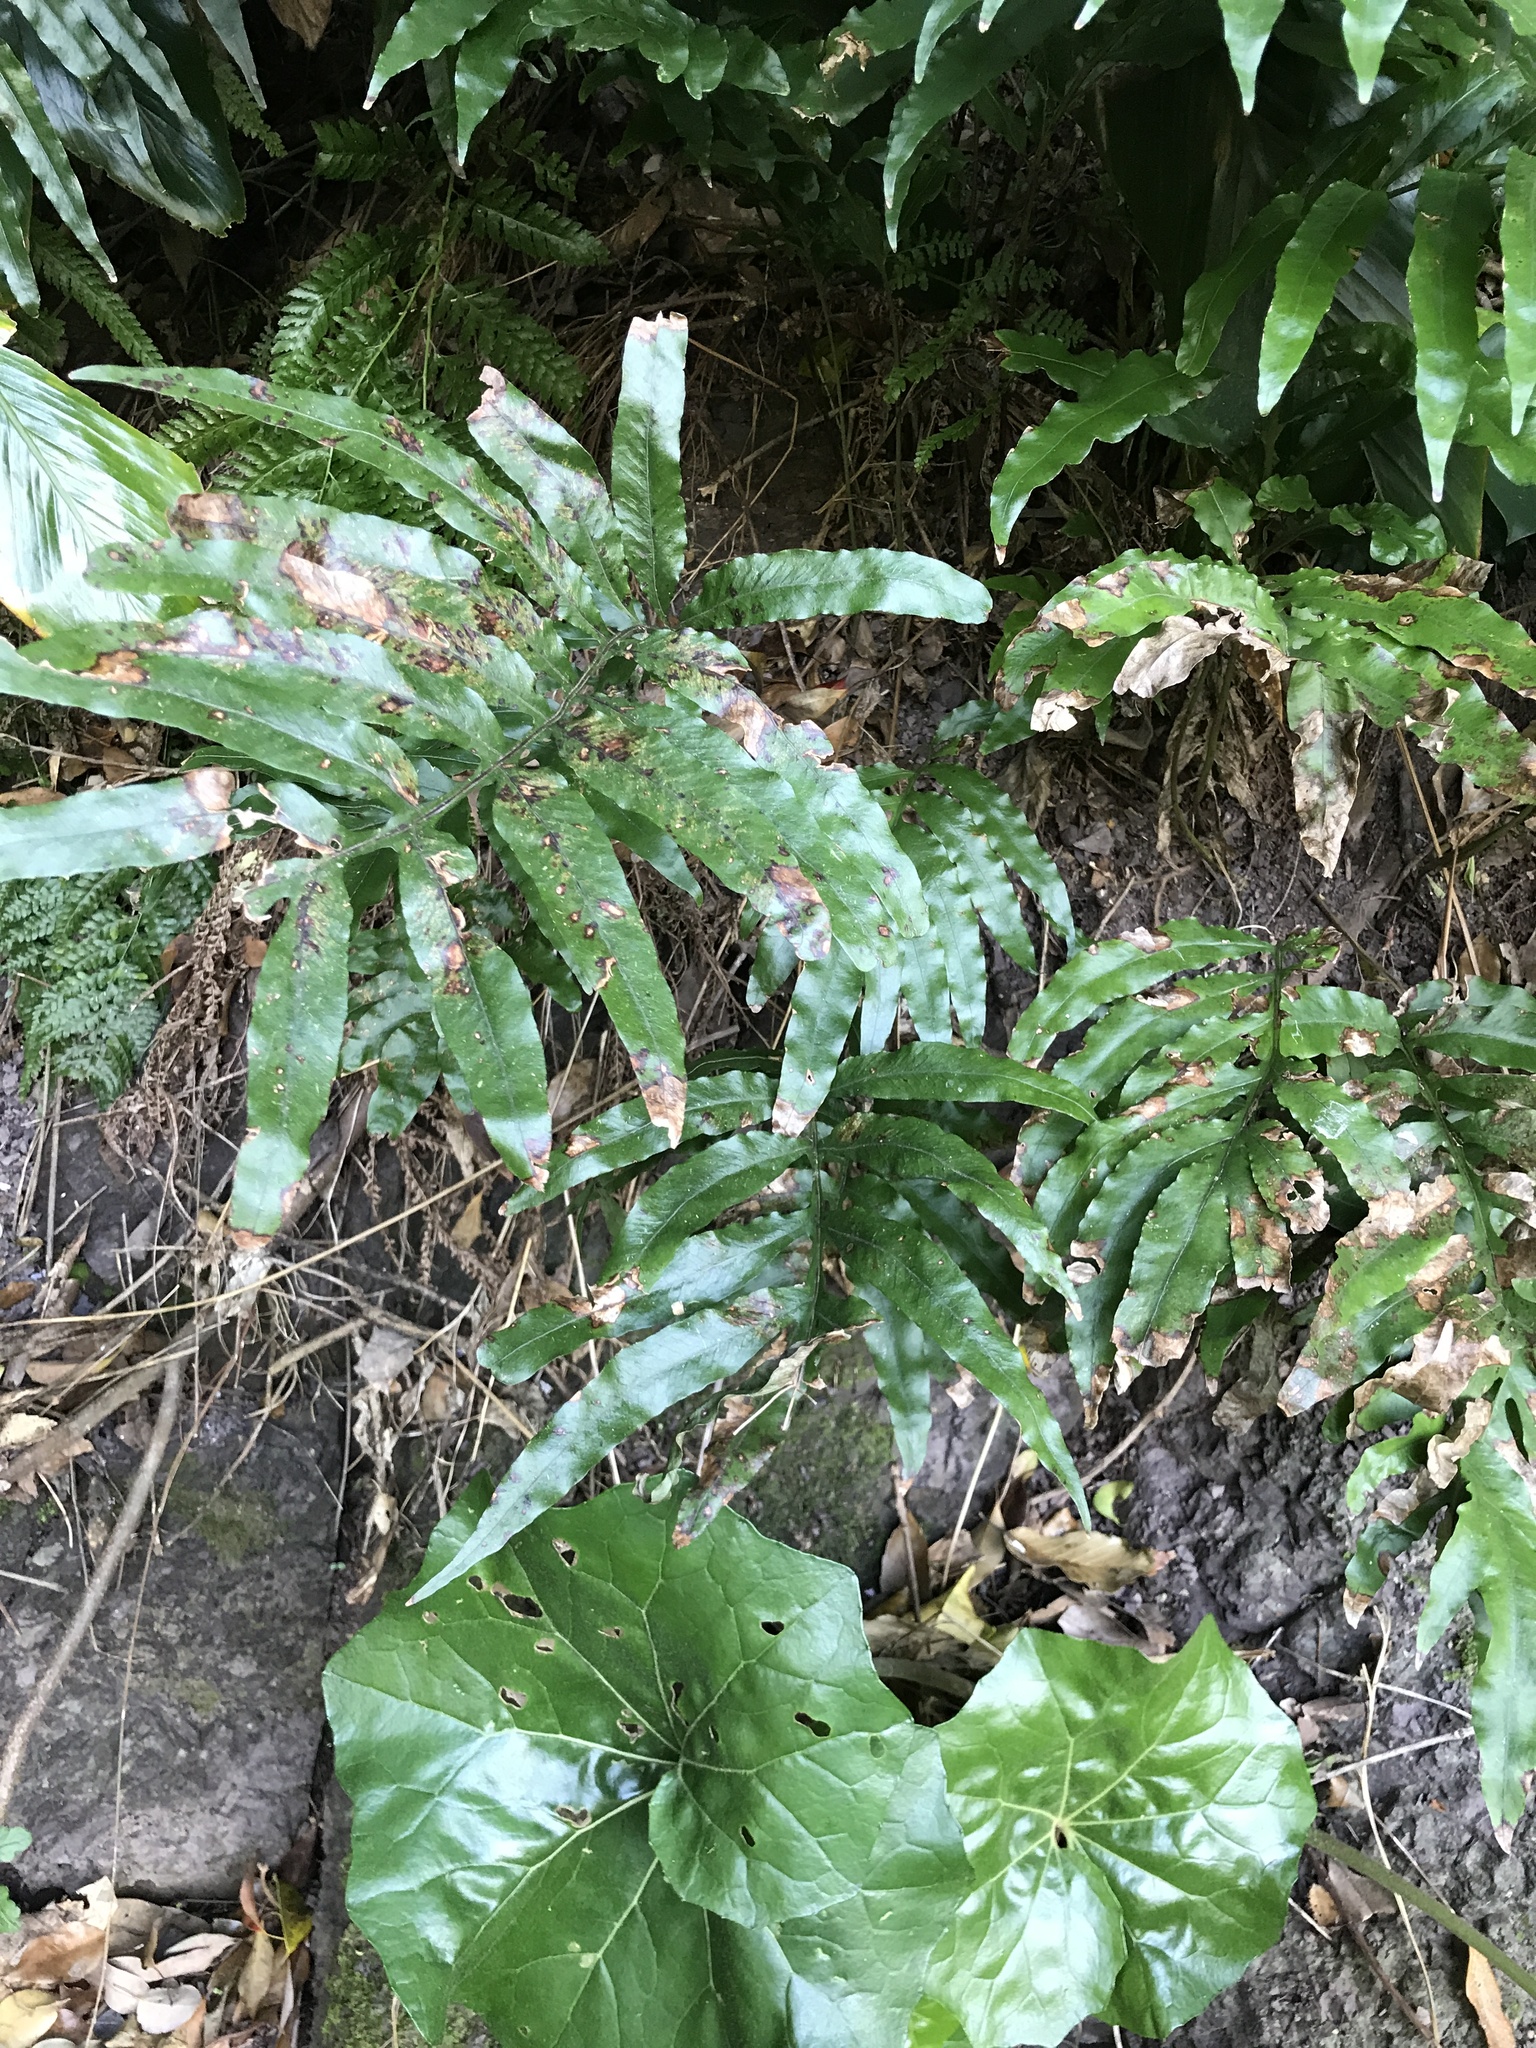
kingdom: Plantae
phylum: Tracheophyta
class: Polypodiopsida
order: Polypodiales
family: Polypodiaceae
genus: Leptochilus
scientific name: Leptochilus ellipticus
